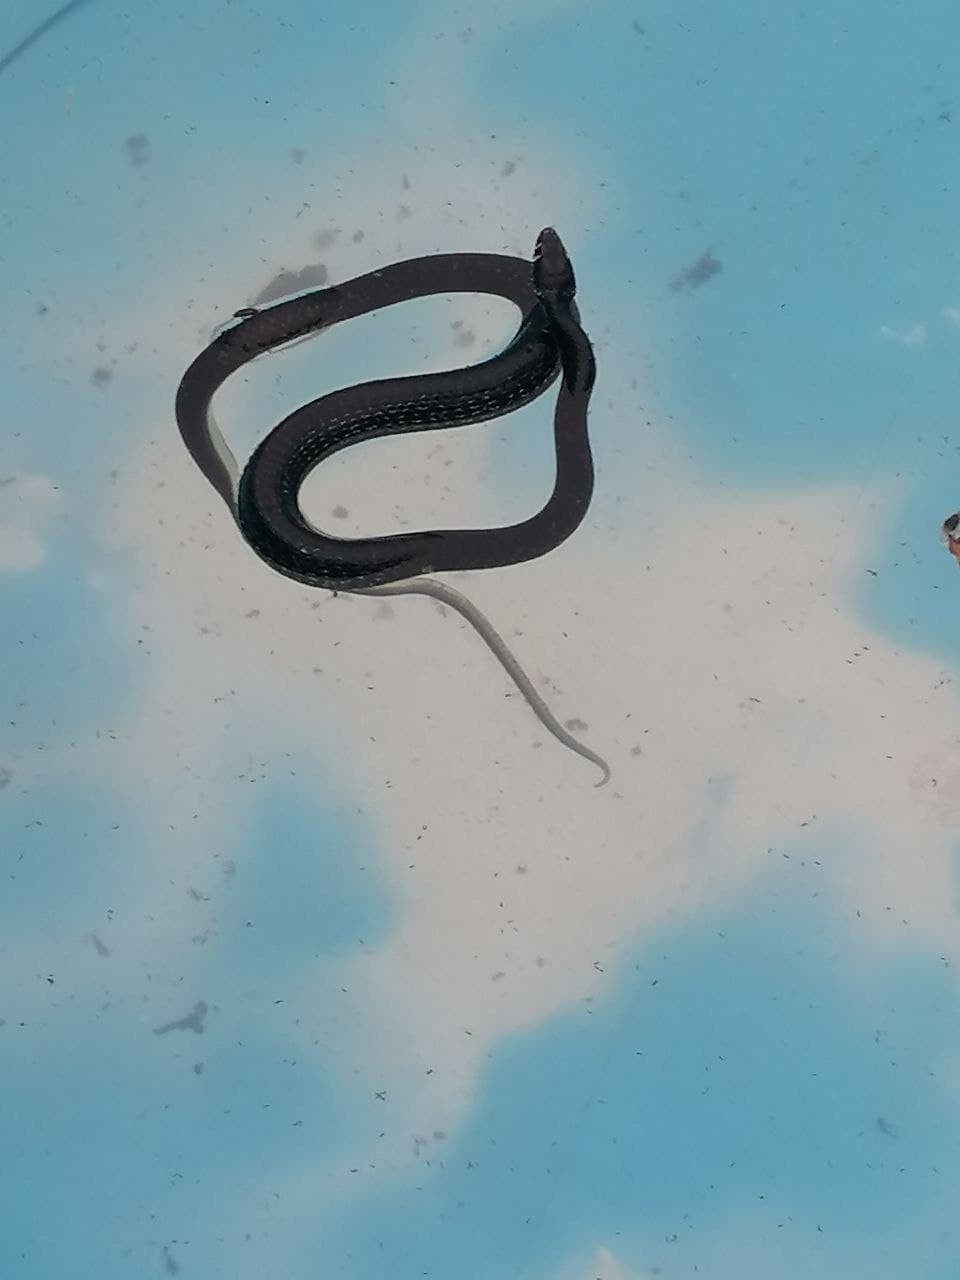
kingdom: Animalia
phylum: Chordata
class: Squamata
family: Colubridae
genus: Hierophis
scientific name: Hierophis viridiflavus
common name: Green whip snake
